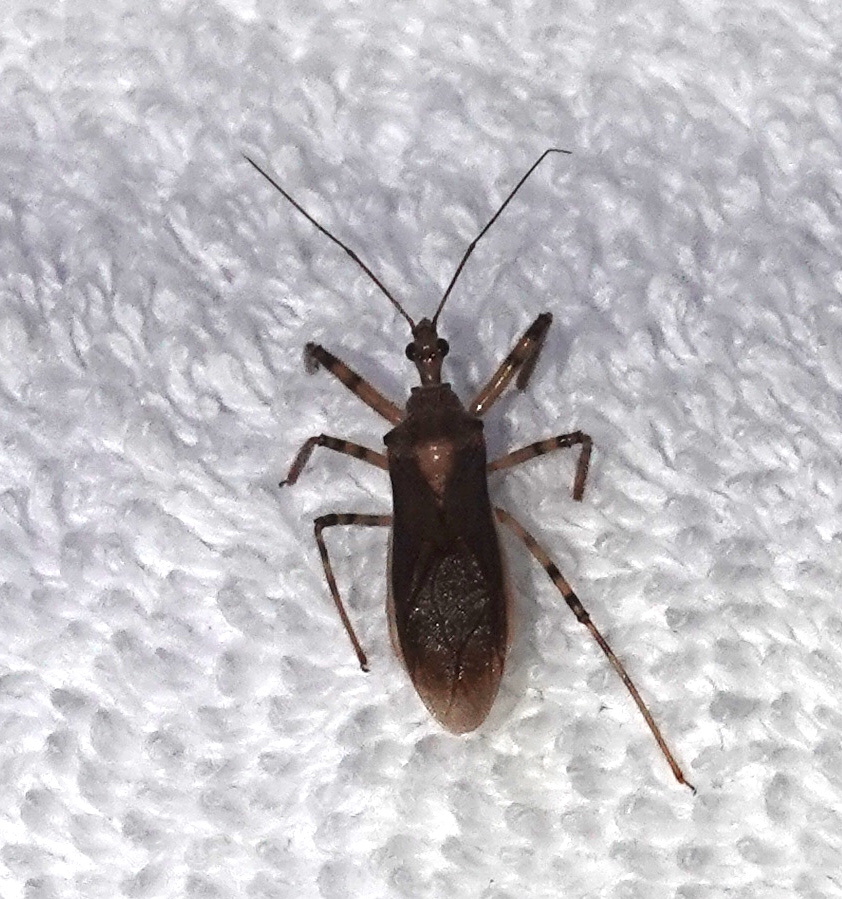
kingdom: Animalia
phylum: Arthropoda
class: Insecta
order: Hemiptera
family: Reduviidae
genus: Castolus
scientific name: Castolus ferox
